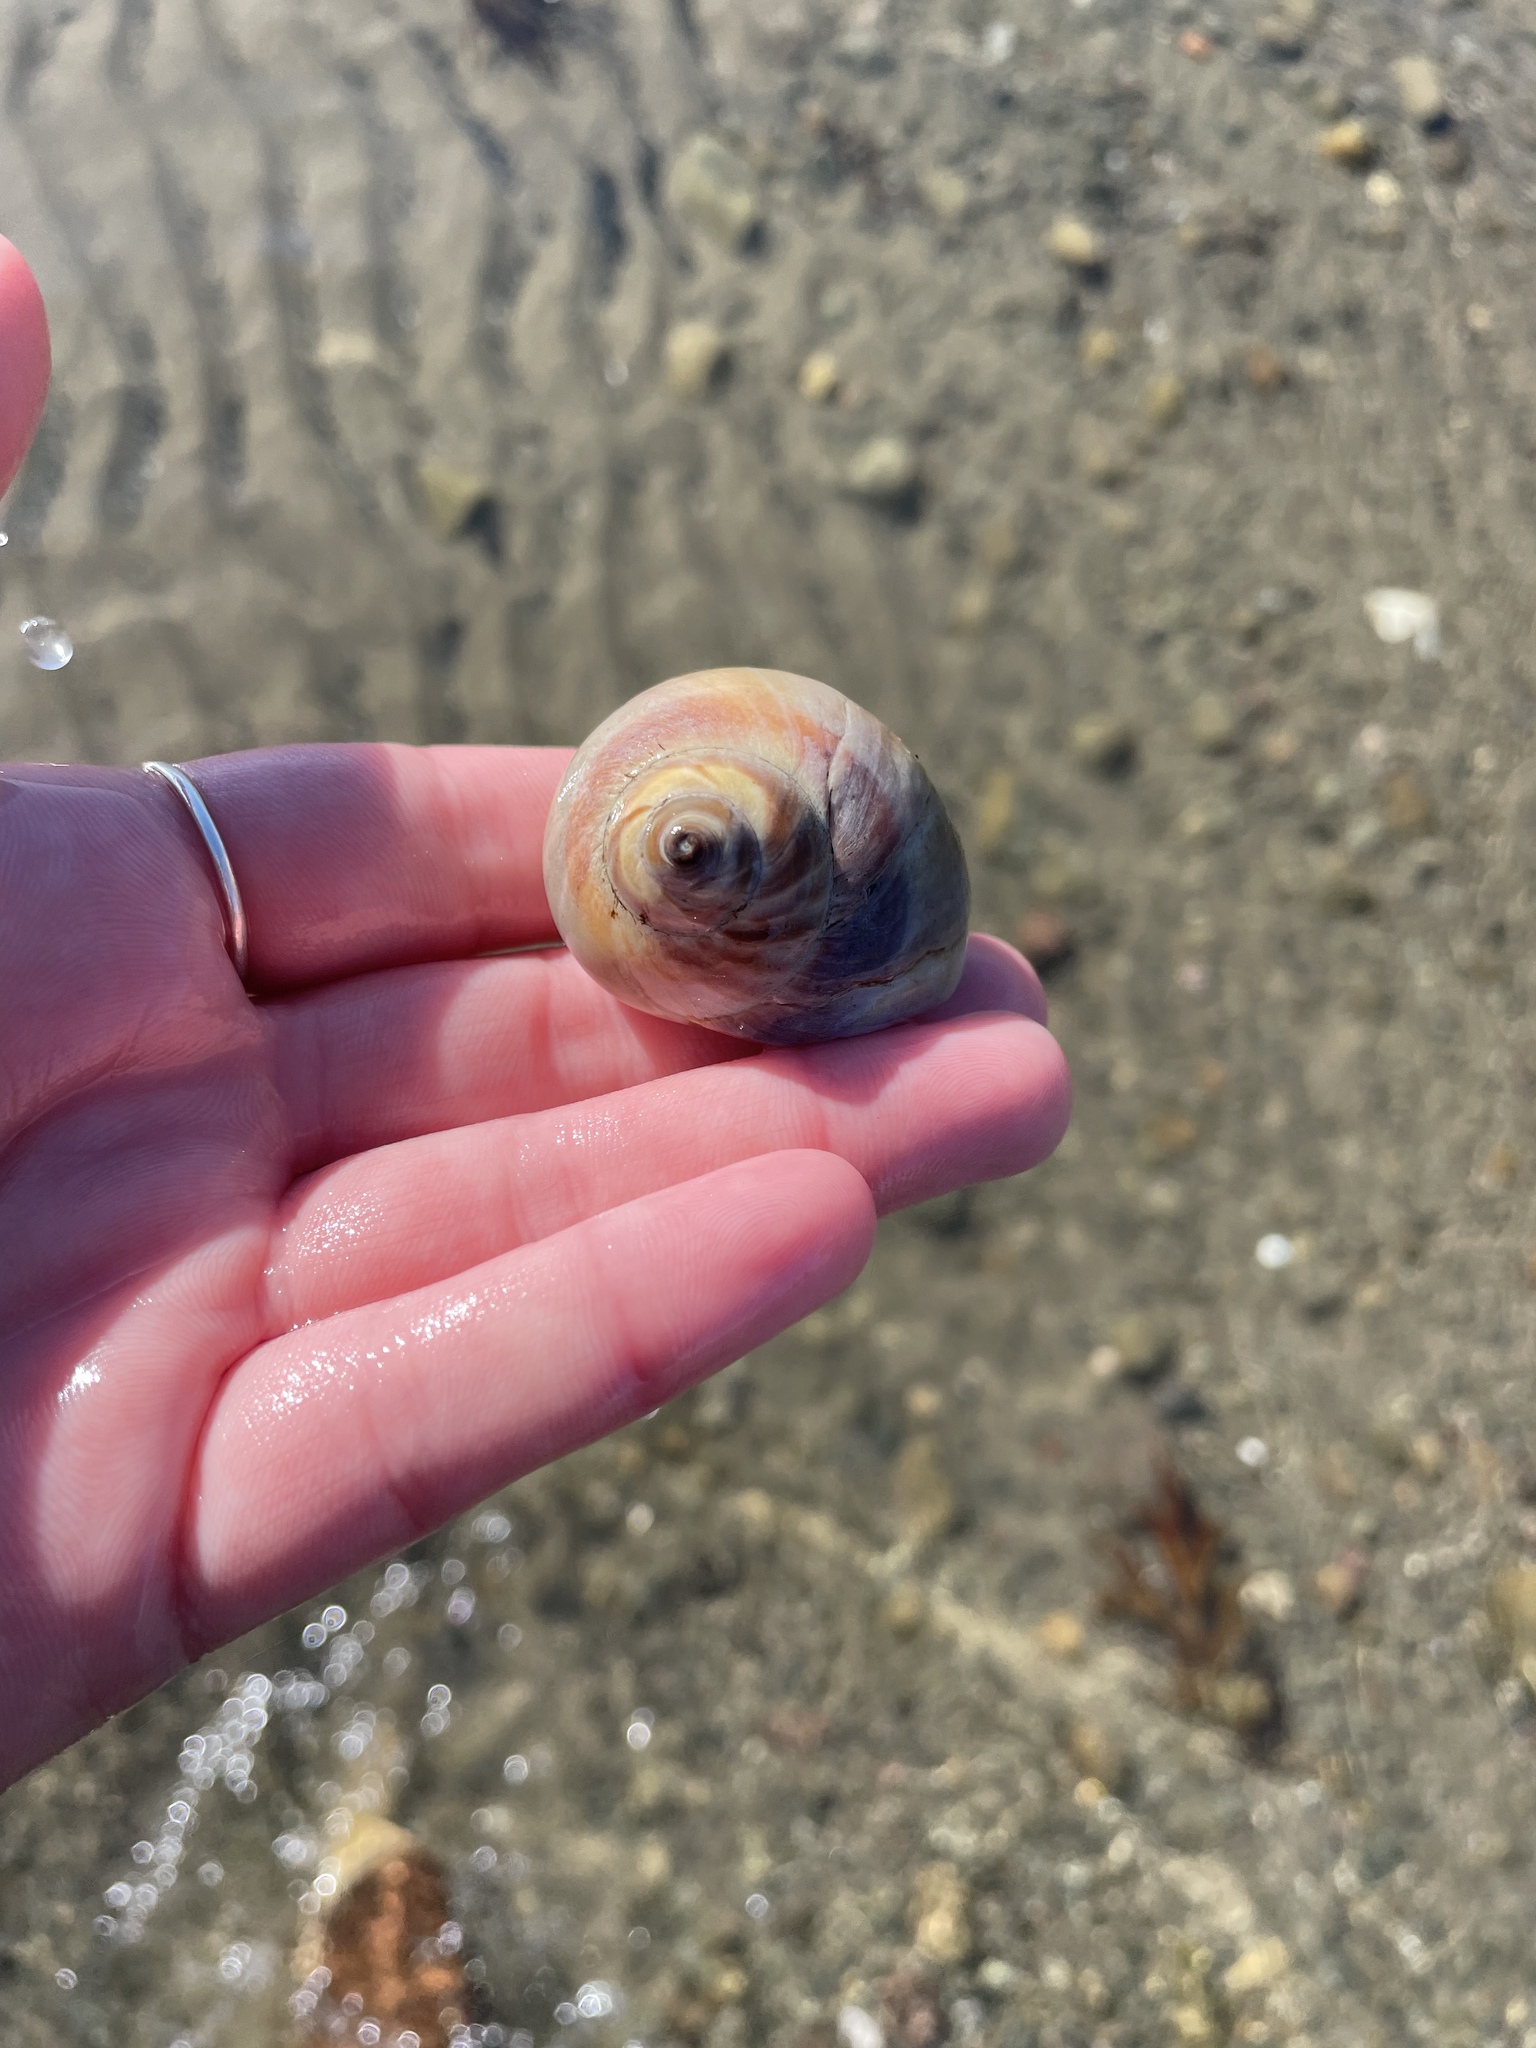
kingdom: Animalia
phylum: Mollusca
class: Gastropoda
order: Littorinimorpha
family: Naticidae
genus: Euspira
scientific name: Euspira heros
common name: Common northern moonsnail
